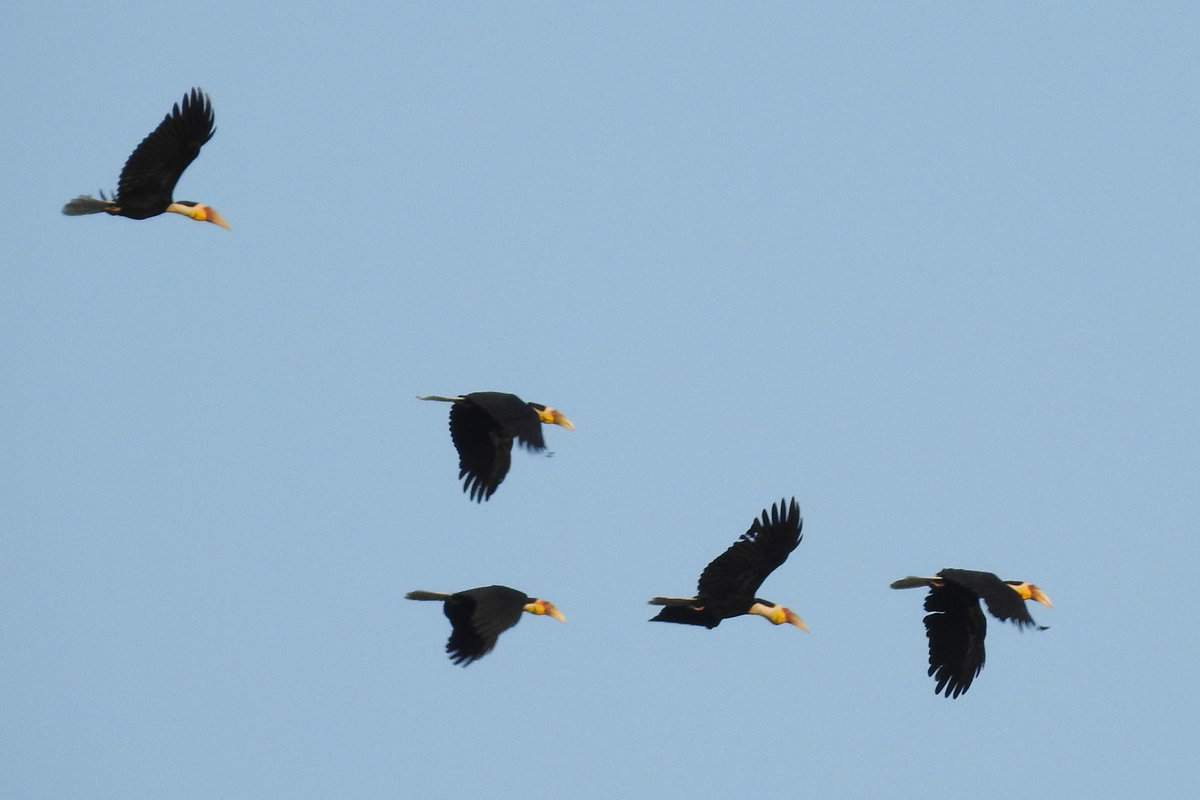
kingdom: Animalia
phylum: Chordata
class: Aves
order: Bucerotiformes
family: Bucerotidae
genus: Rhyticeros
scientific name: Rhyticeros undulatus
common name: Wreathed hornbill
